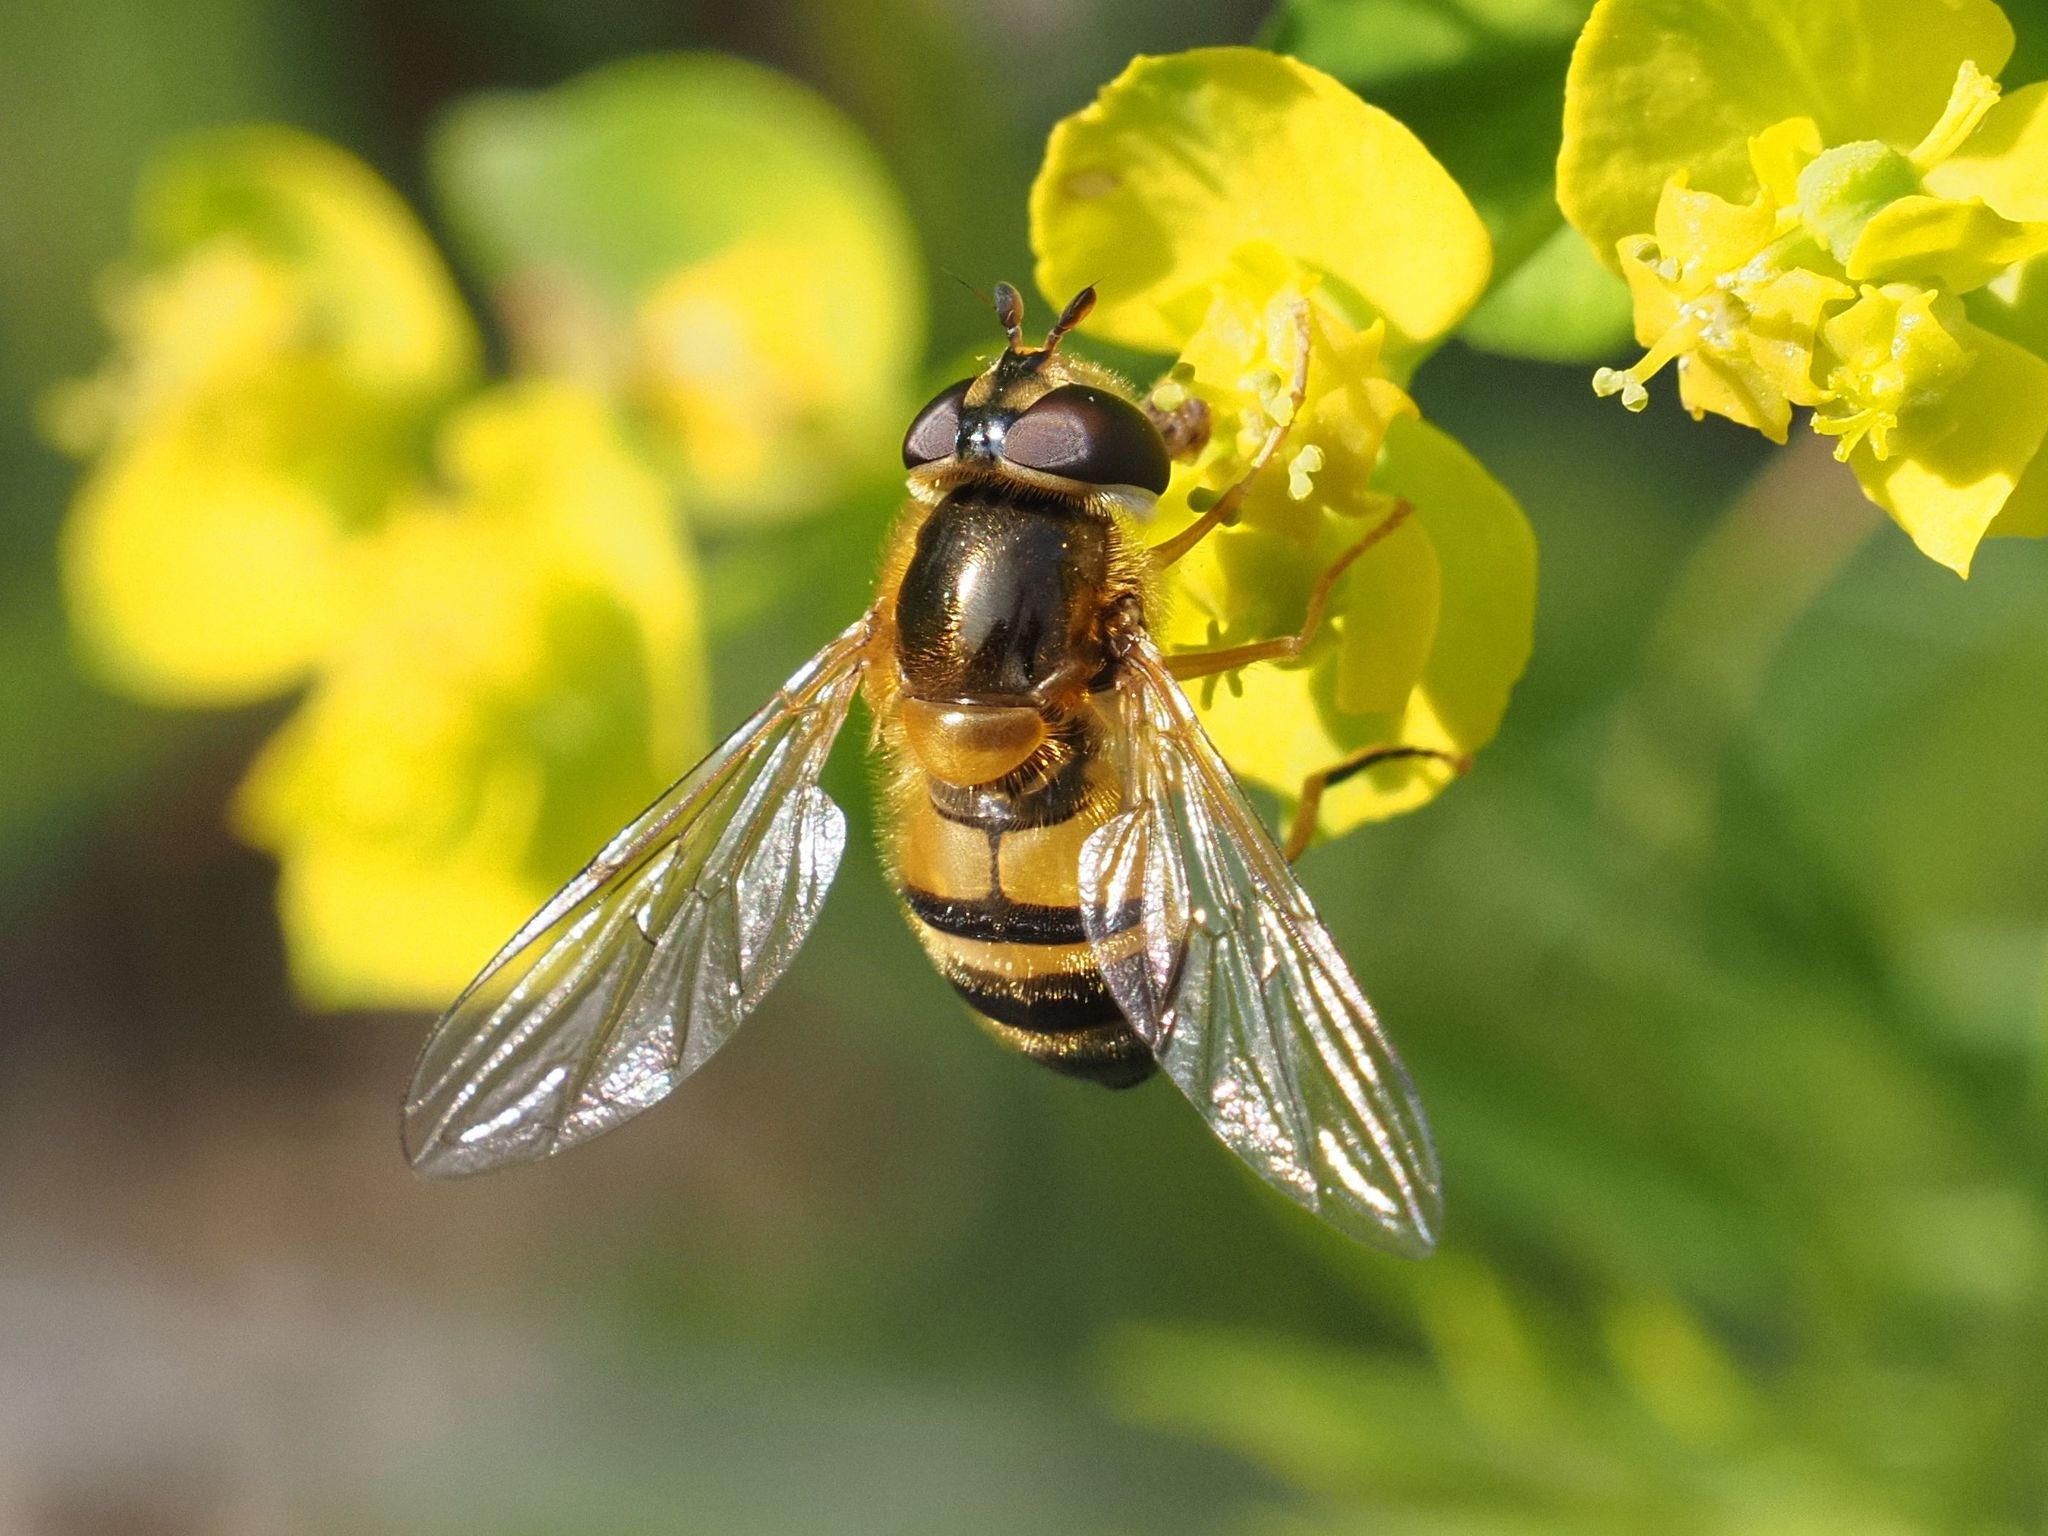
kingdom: Animalia
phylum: Arthropoda
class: Insecta
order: Diptera
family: Syrphidae
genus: Epistrophe
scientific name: Epistrophe eligans
